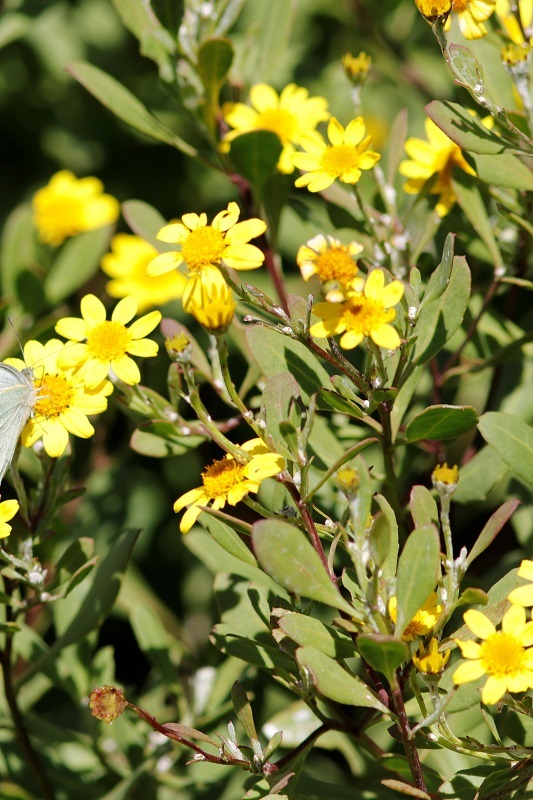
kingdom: Plantae
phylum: Tracheophyta
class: Magnoliopsida
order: Asterales
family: Asteraceae
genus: Osteospermum
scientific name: Osteospermum moniliferum
